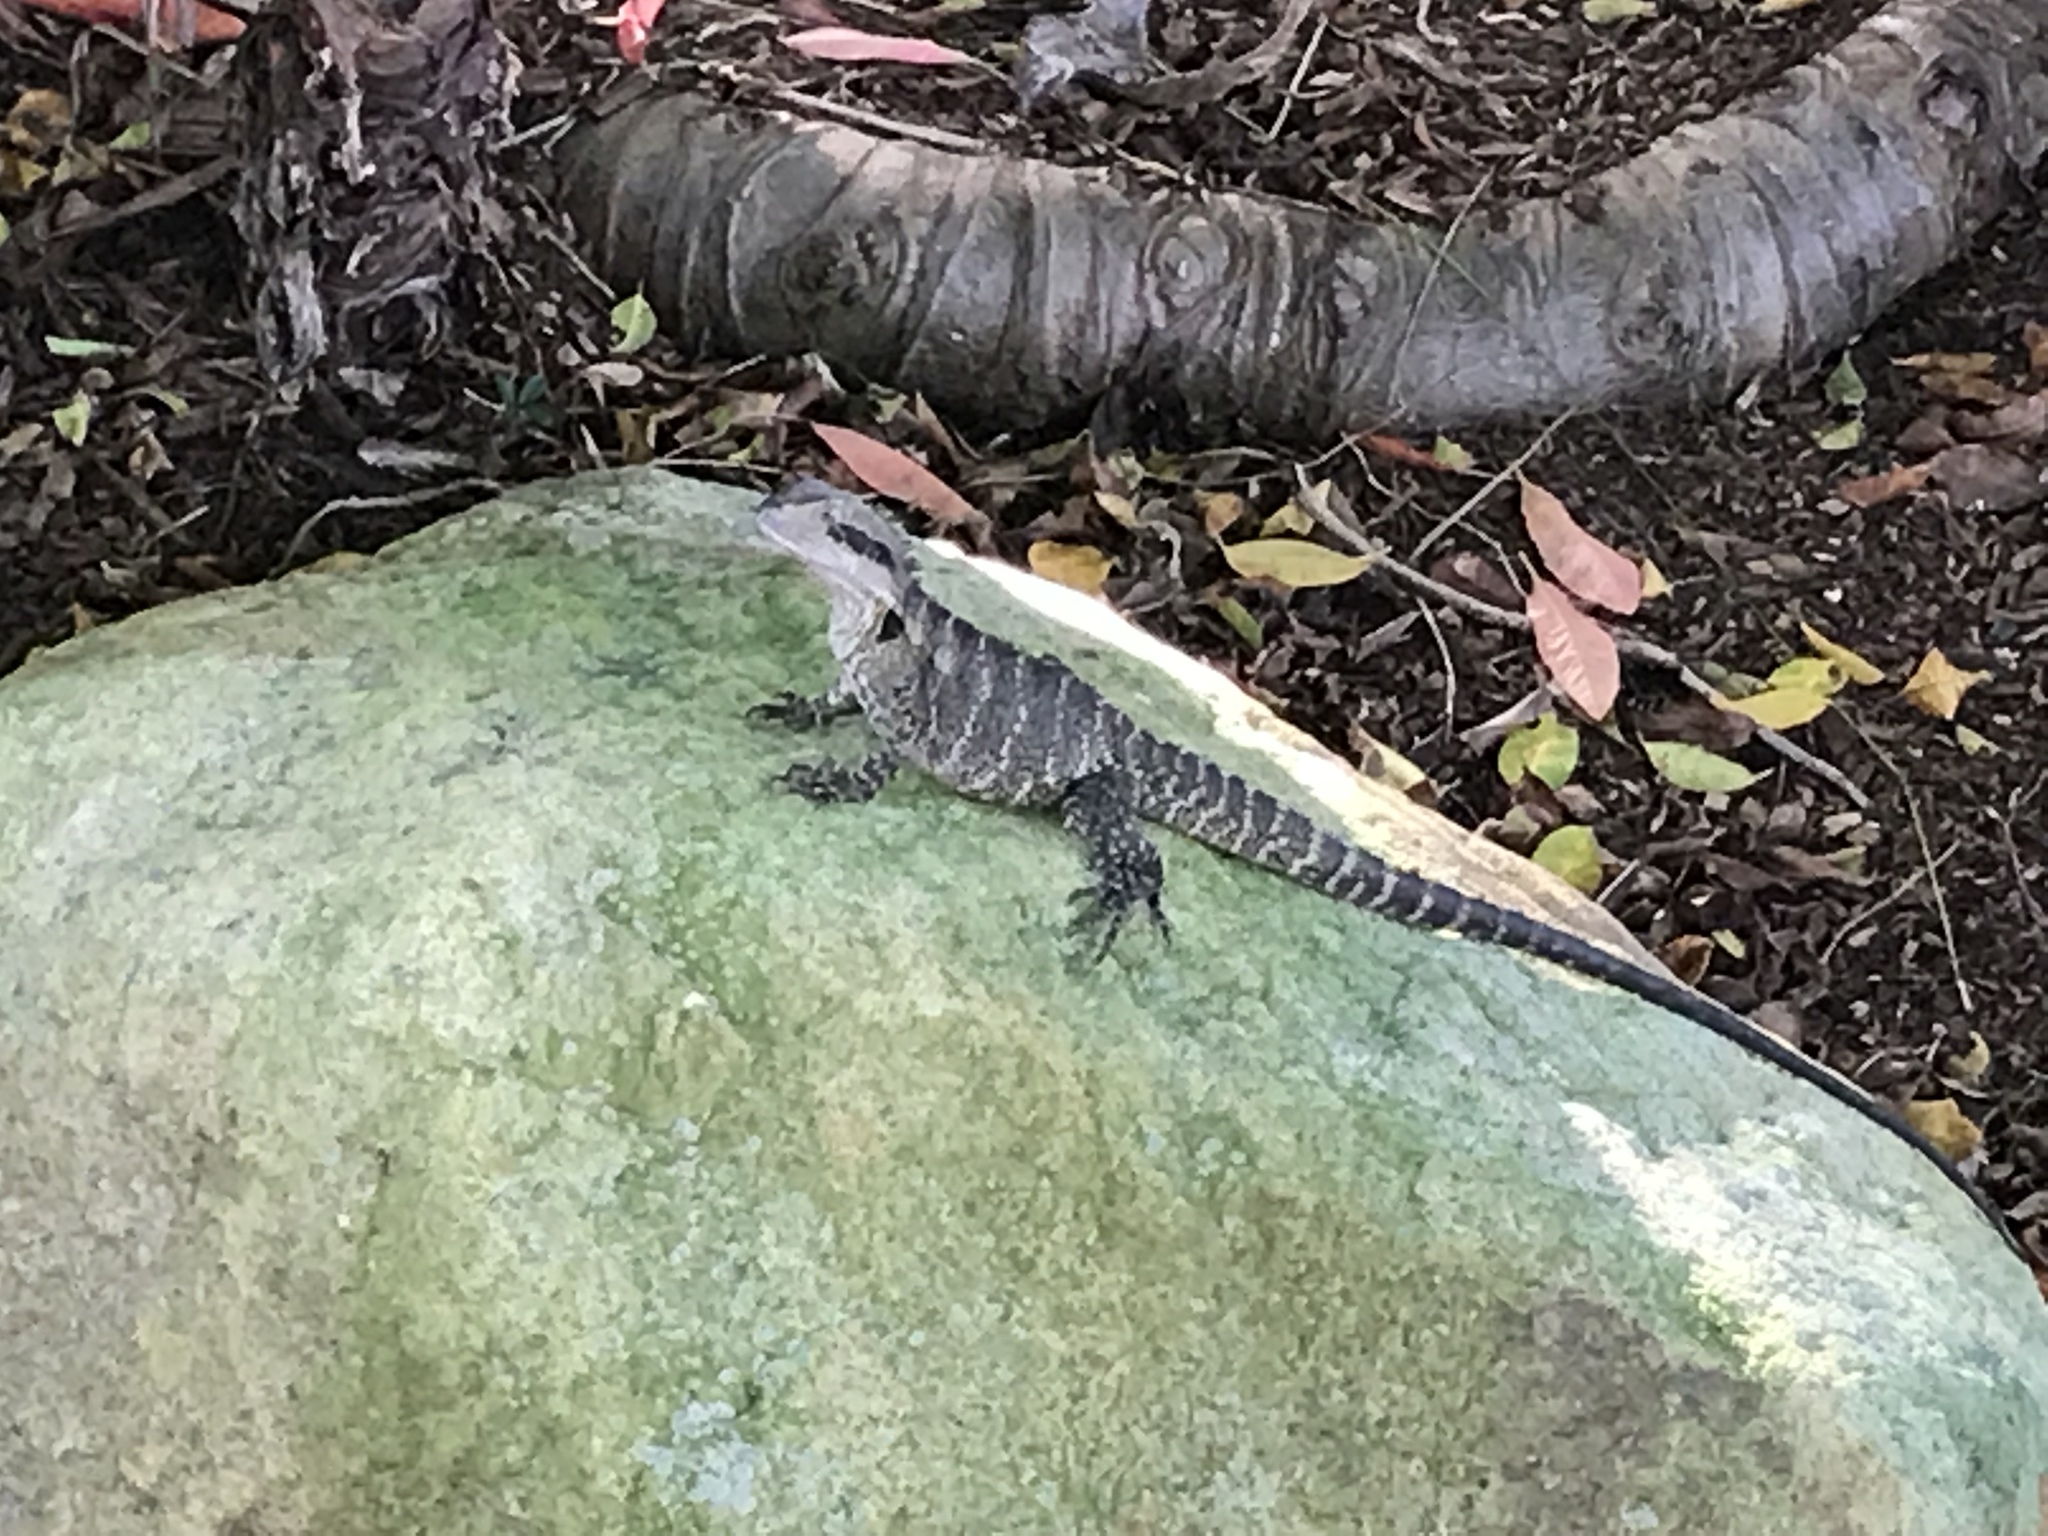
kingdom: Animalia
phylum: Chordata
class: Squamata
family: Agamidae
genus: Intellagama
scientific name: Intellagama lesueurii
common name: Eastern water dragon
